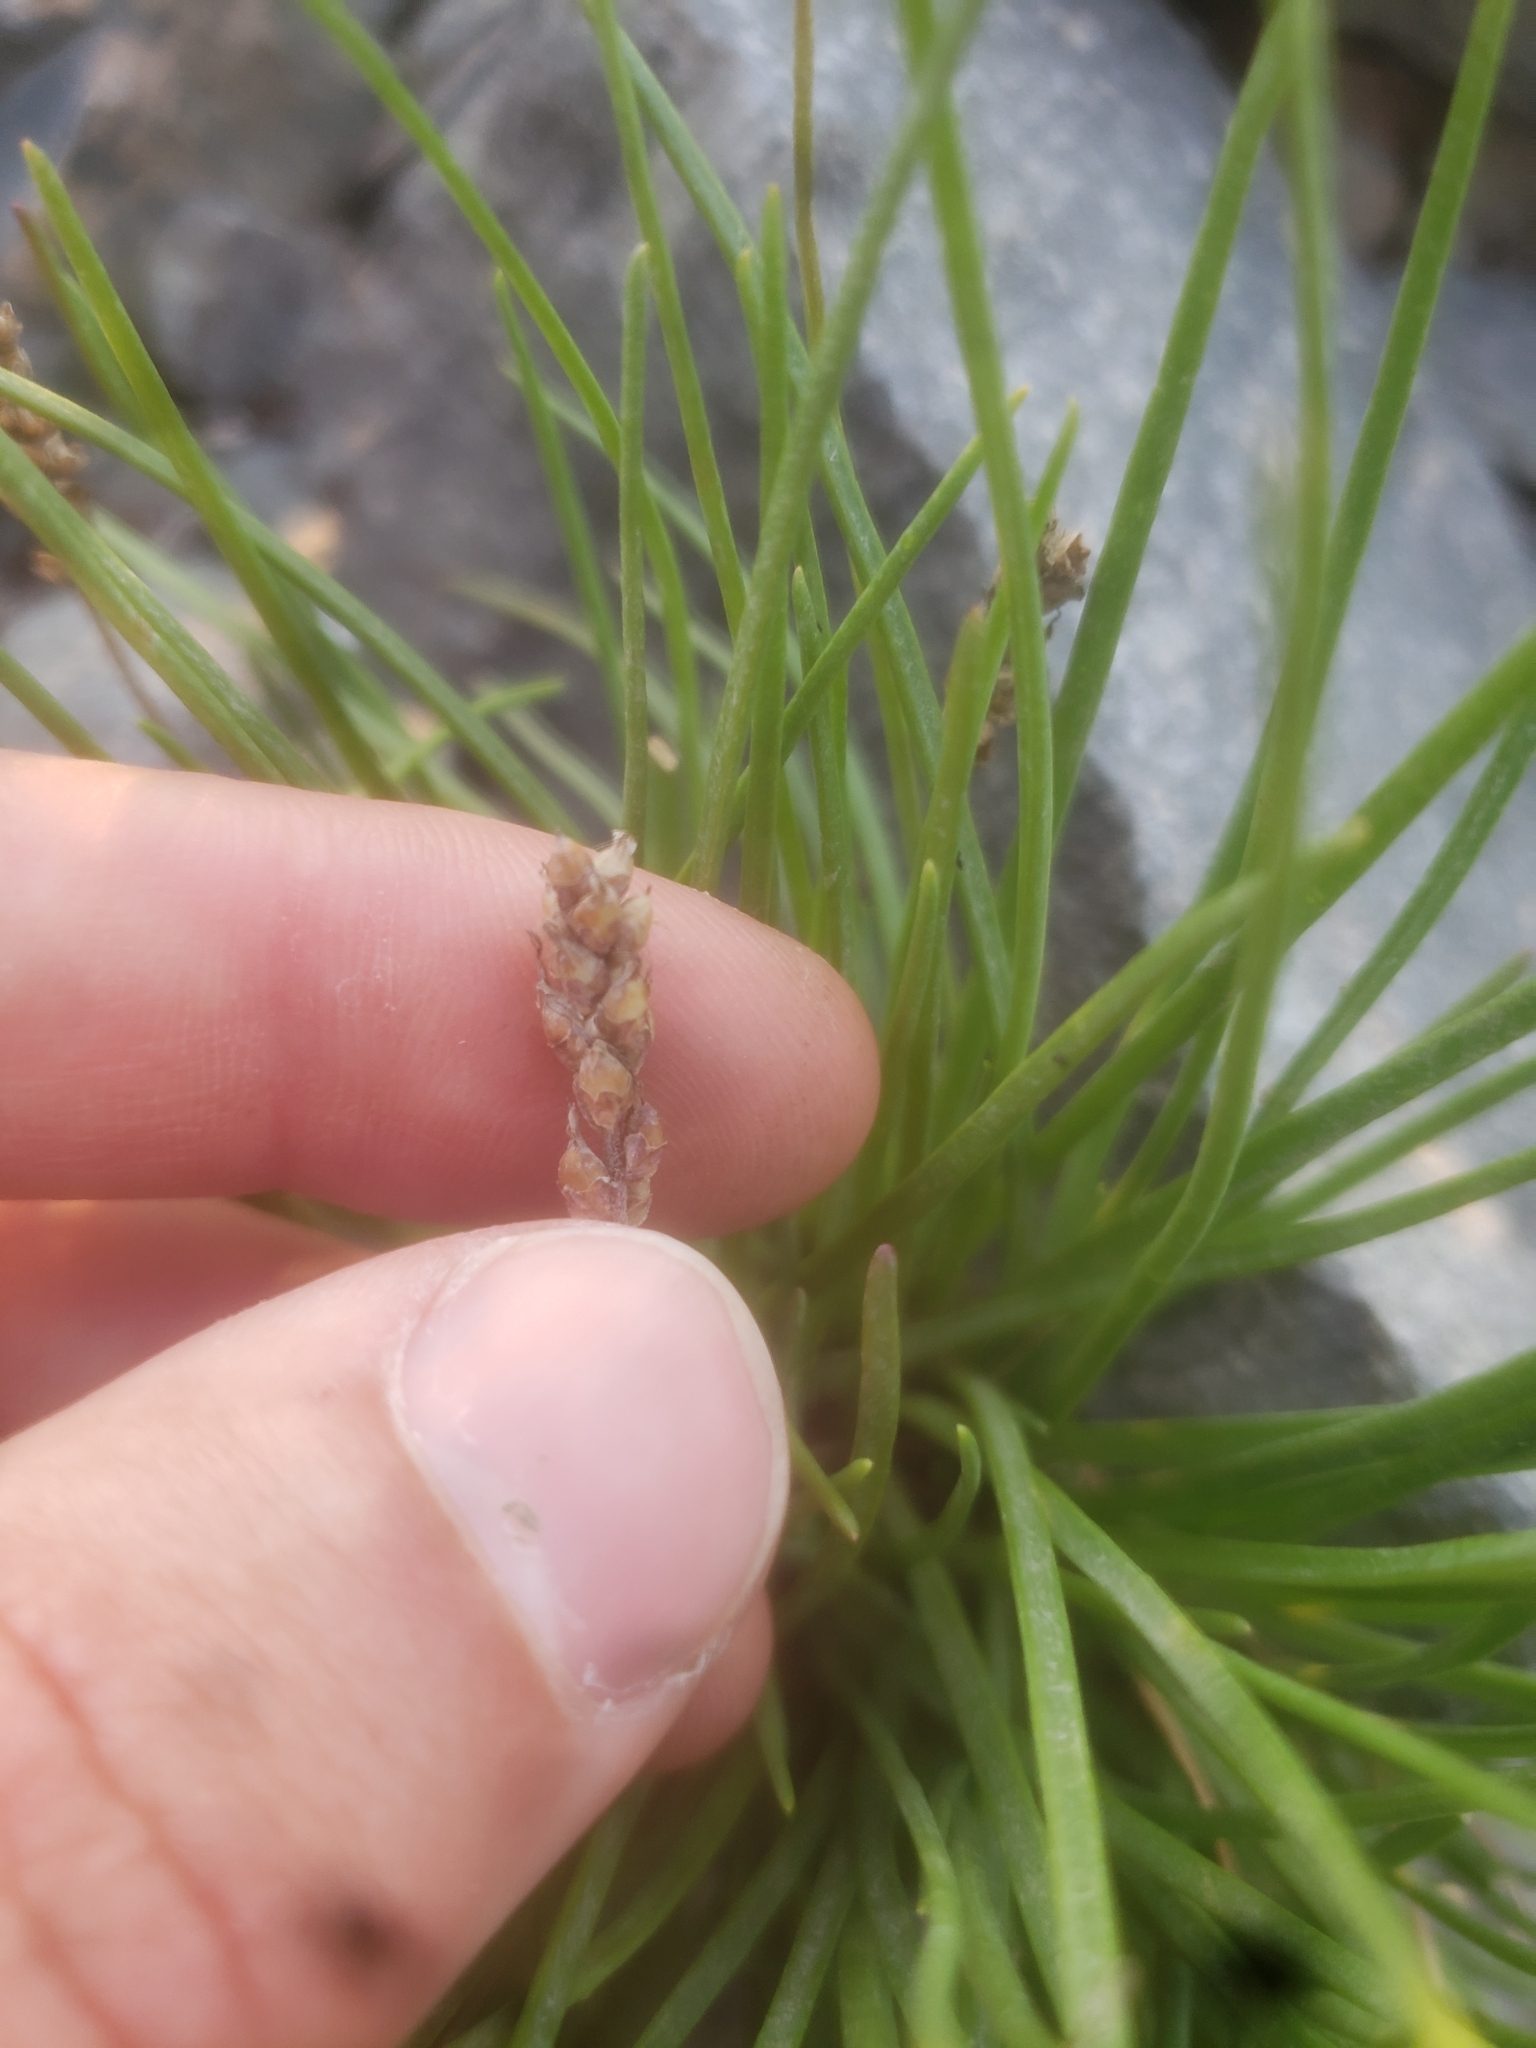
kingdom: Plantae
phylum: Tracheophyta
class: Magnoliopsida
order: Lamiales
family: Plantaginaceae
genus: Plantago
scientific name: Plantago maritima
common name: Sea plantain
